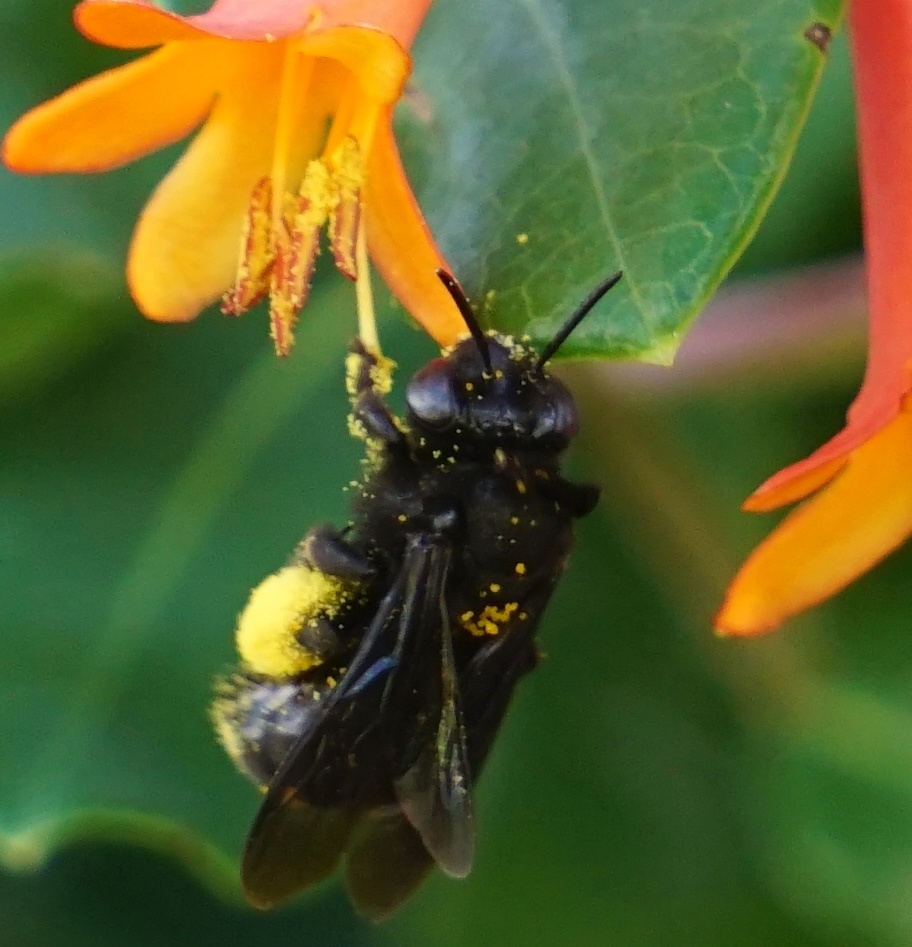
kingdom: Animalia
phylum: Arthropoda
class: Insecta
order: Hymenoptera
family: Apidae
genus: Melissodes
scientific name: Melissodes bimaculatus
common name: Two-spotted long-horned bee
